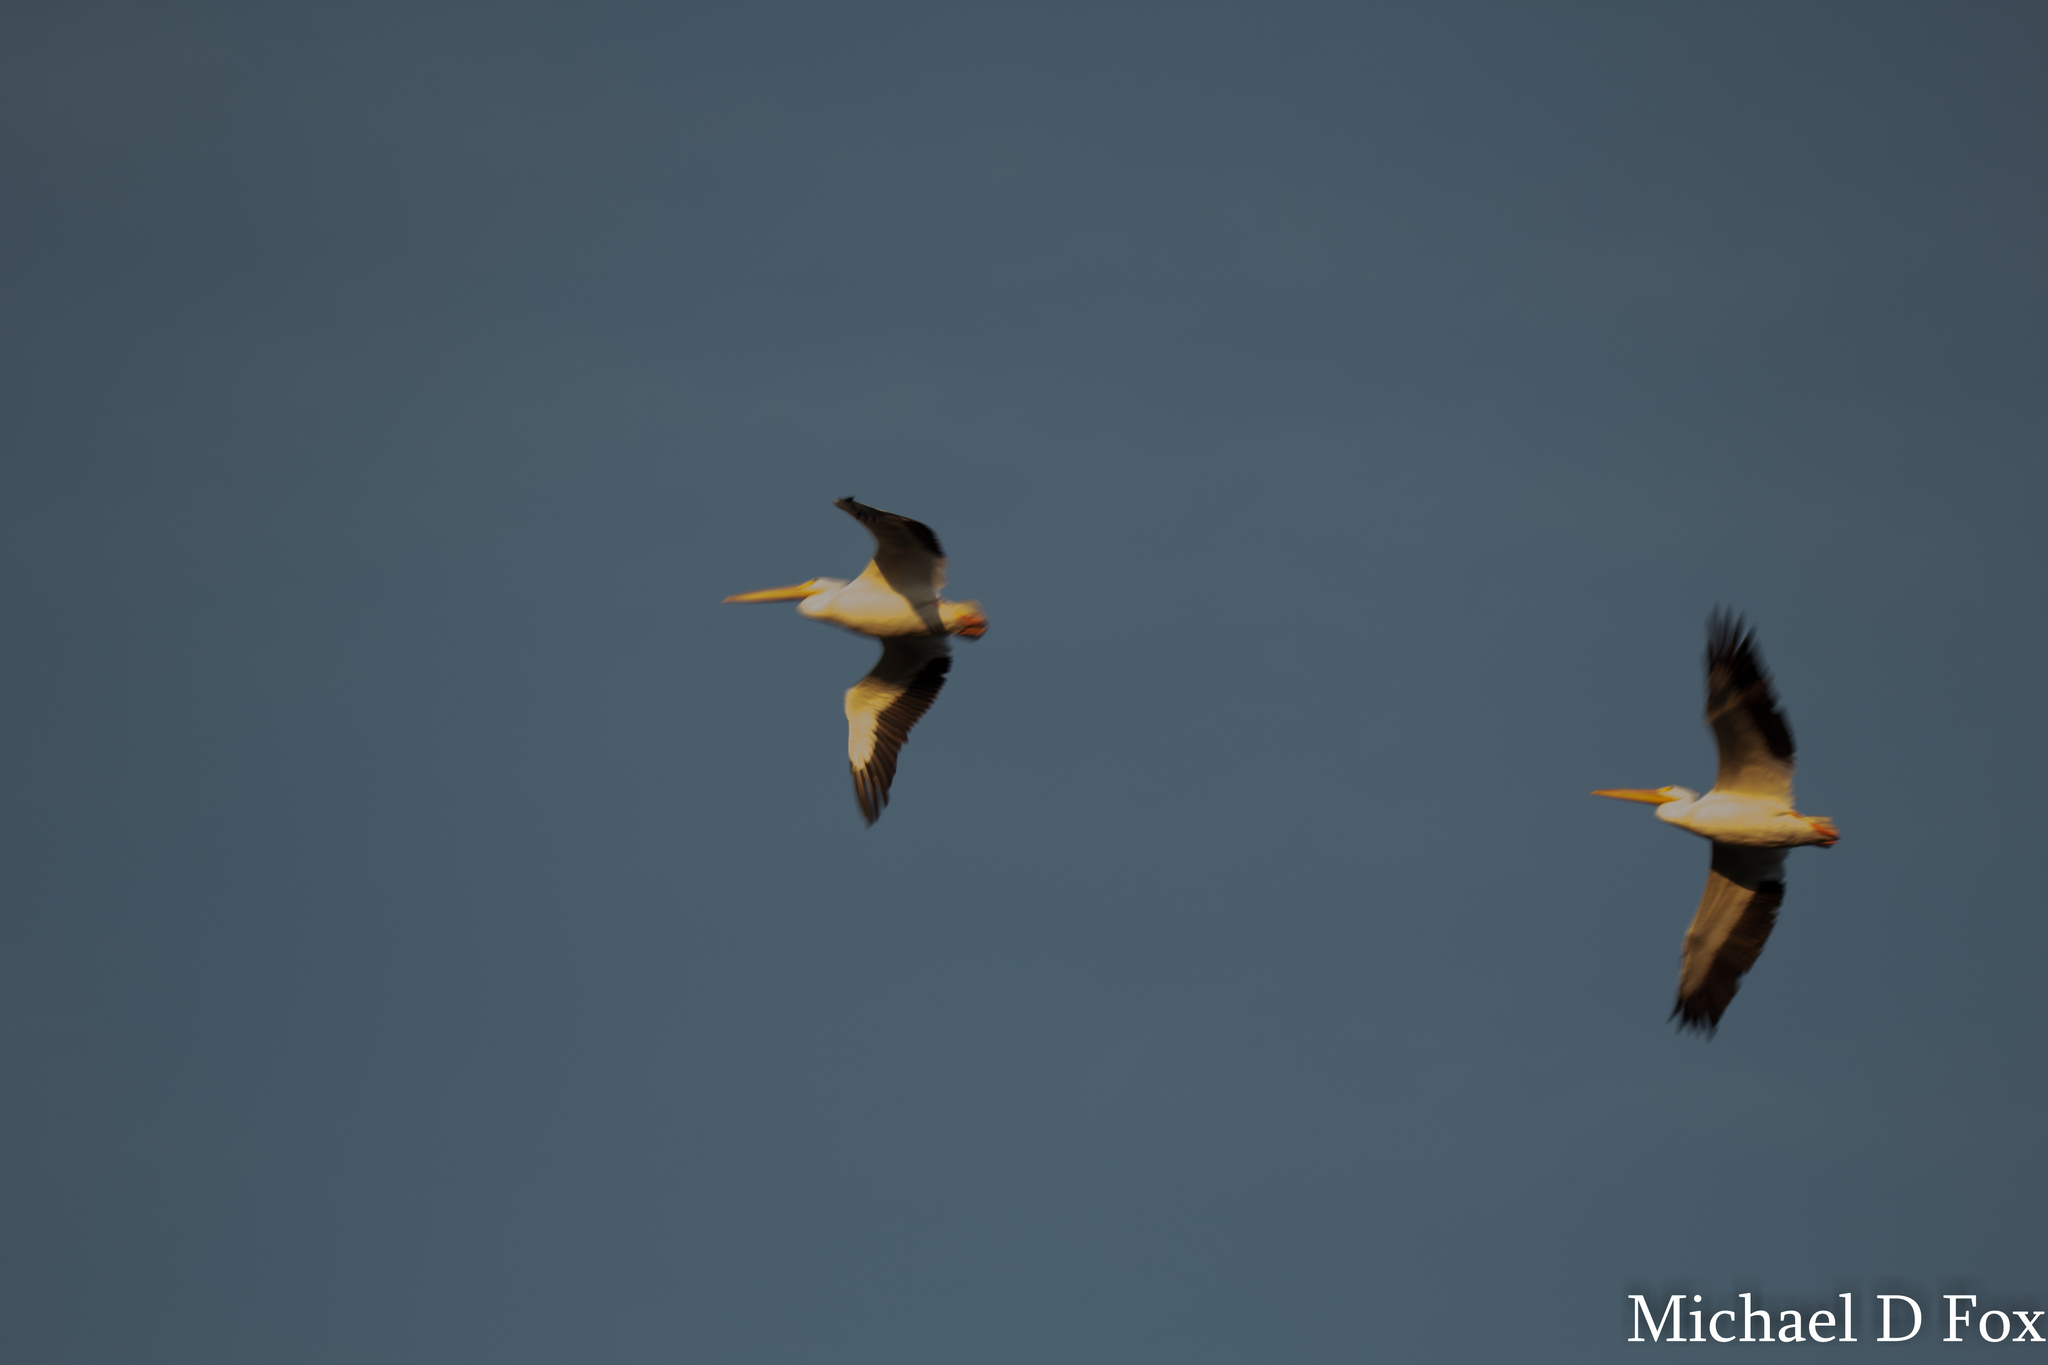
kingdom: Animalia
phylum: Chordata
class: Aves
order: Pelecaniformes
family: Pelecanidae
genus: Pelecanus
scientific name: Pelecanus erythrorhynchos
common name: American white pelican
